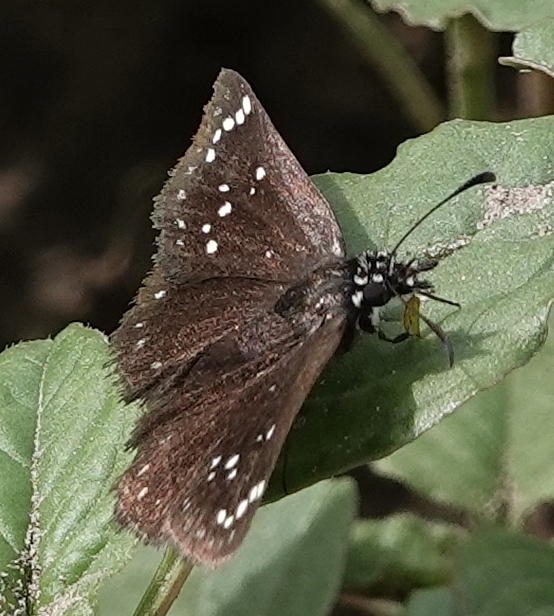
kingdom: Animalia
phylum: Arthropoda
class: Insecta
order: Lepidoptera
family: Hesperiidae
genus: Pholisora
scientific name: Pholisora catullus
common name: Common sootywing
